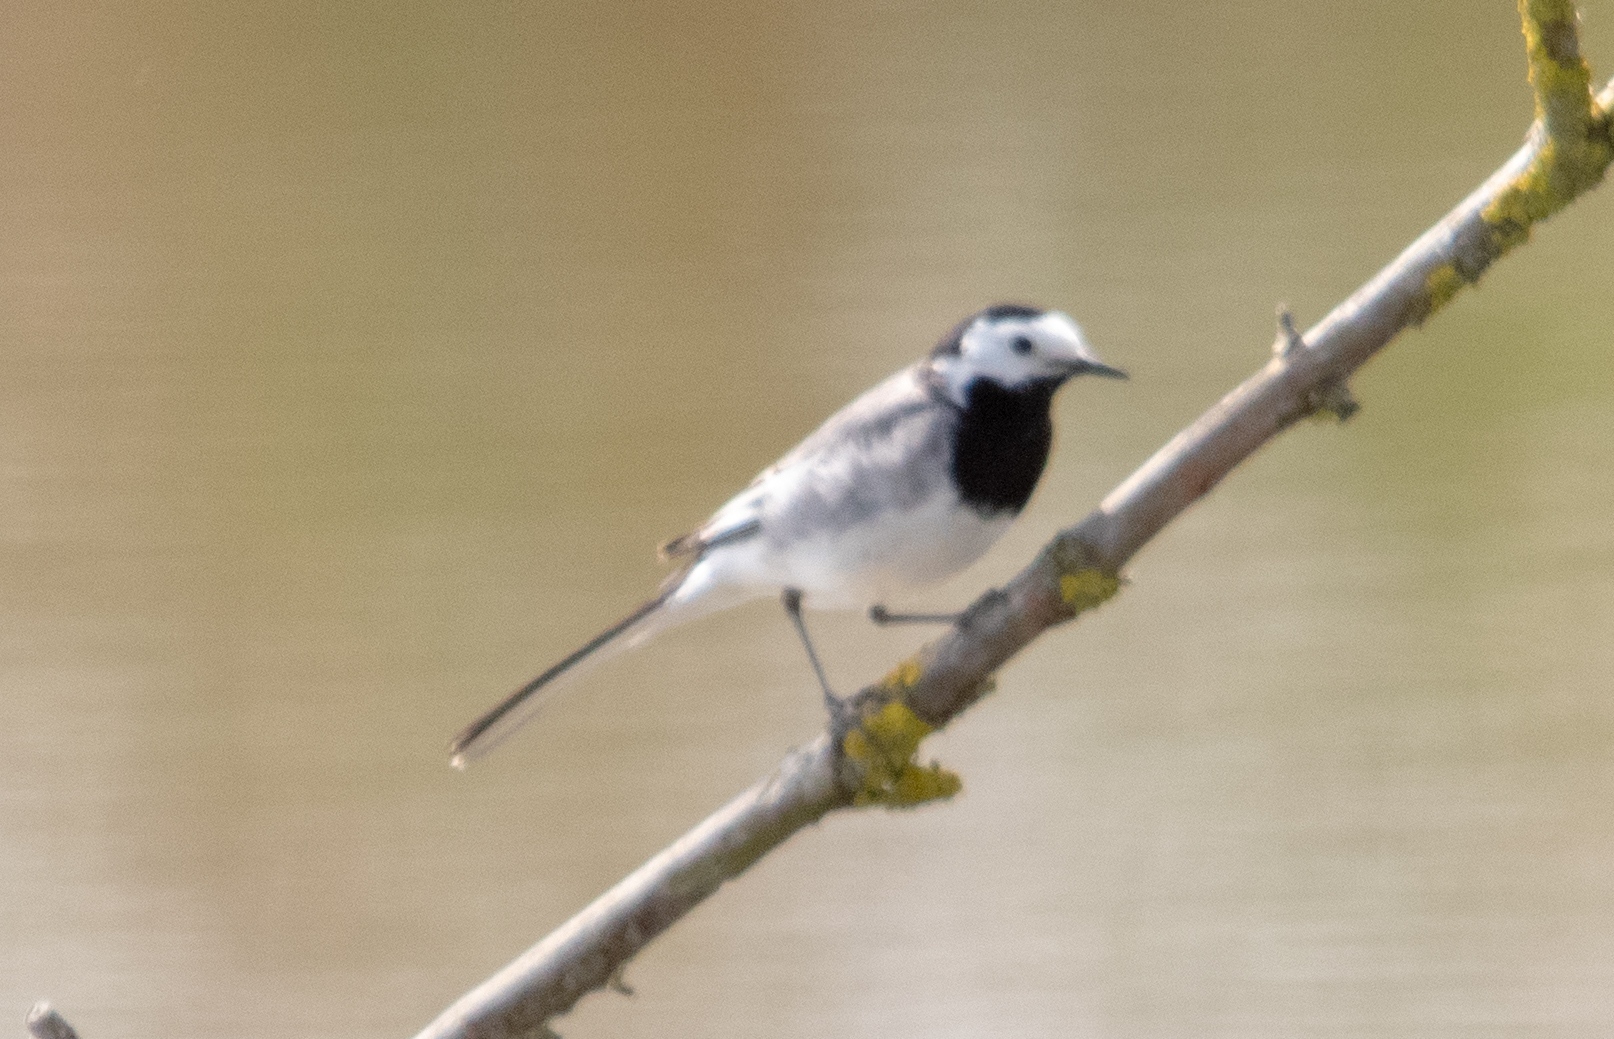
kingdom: Animalia
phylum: Chordata
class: Aves
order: Passeriformes
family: Motacillidae
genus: Motacilla
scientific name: Motacilla alba
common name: White wagtail
